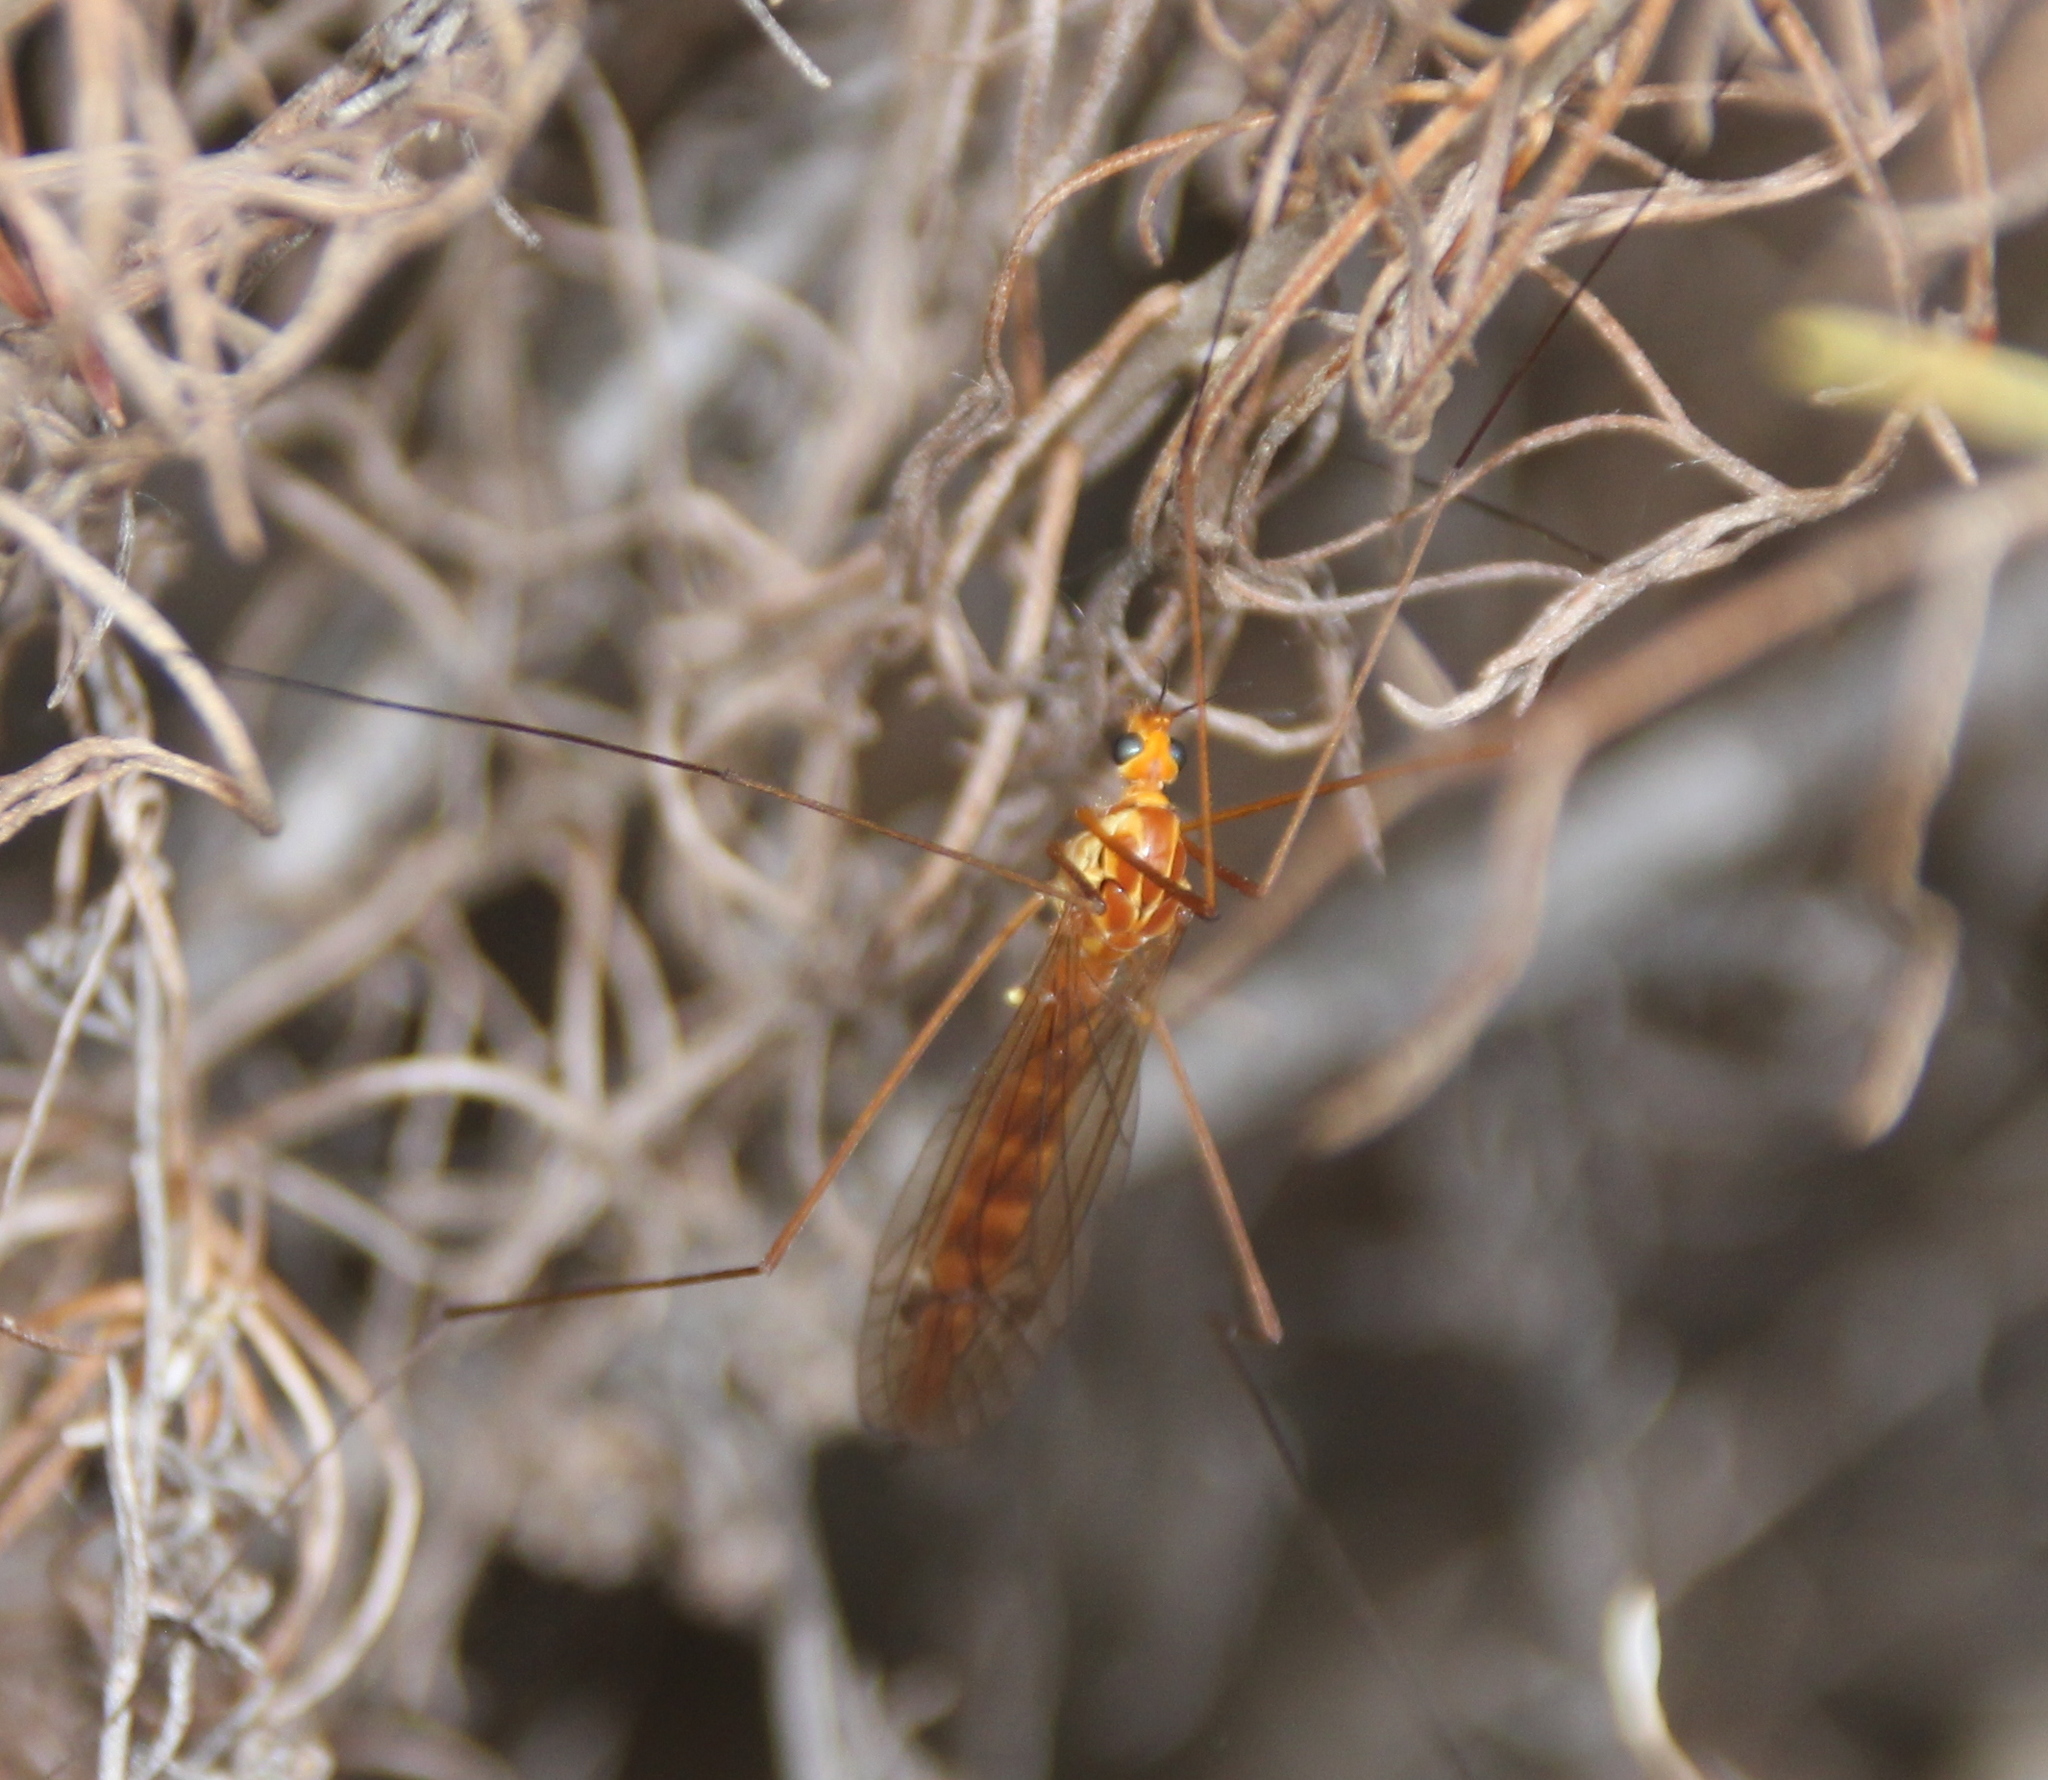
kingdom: Animalia
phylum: Arthropoda
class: Insecta
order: Diptera
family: Tipulidae
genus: Nephrotoma
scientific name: Nephrotoma
